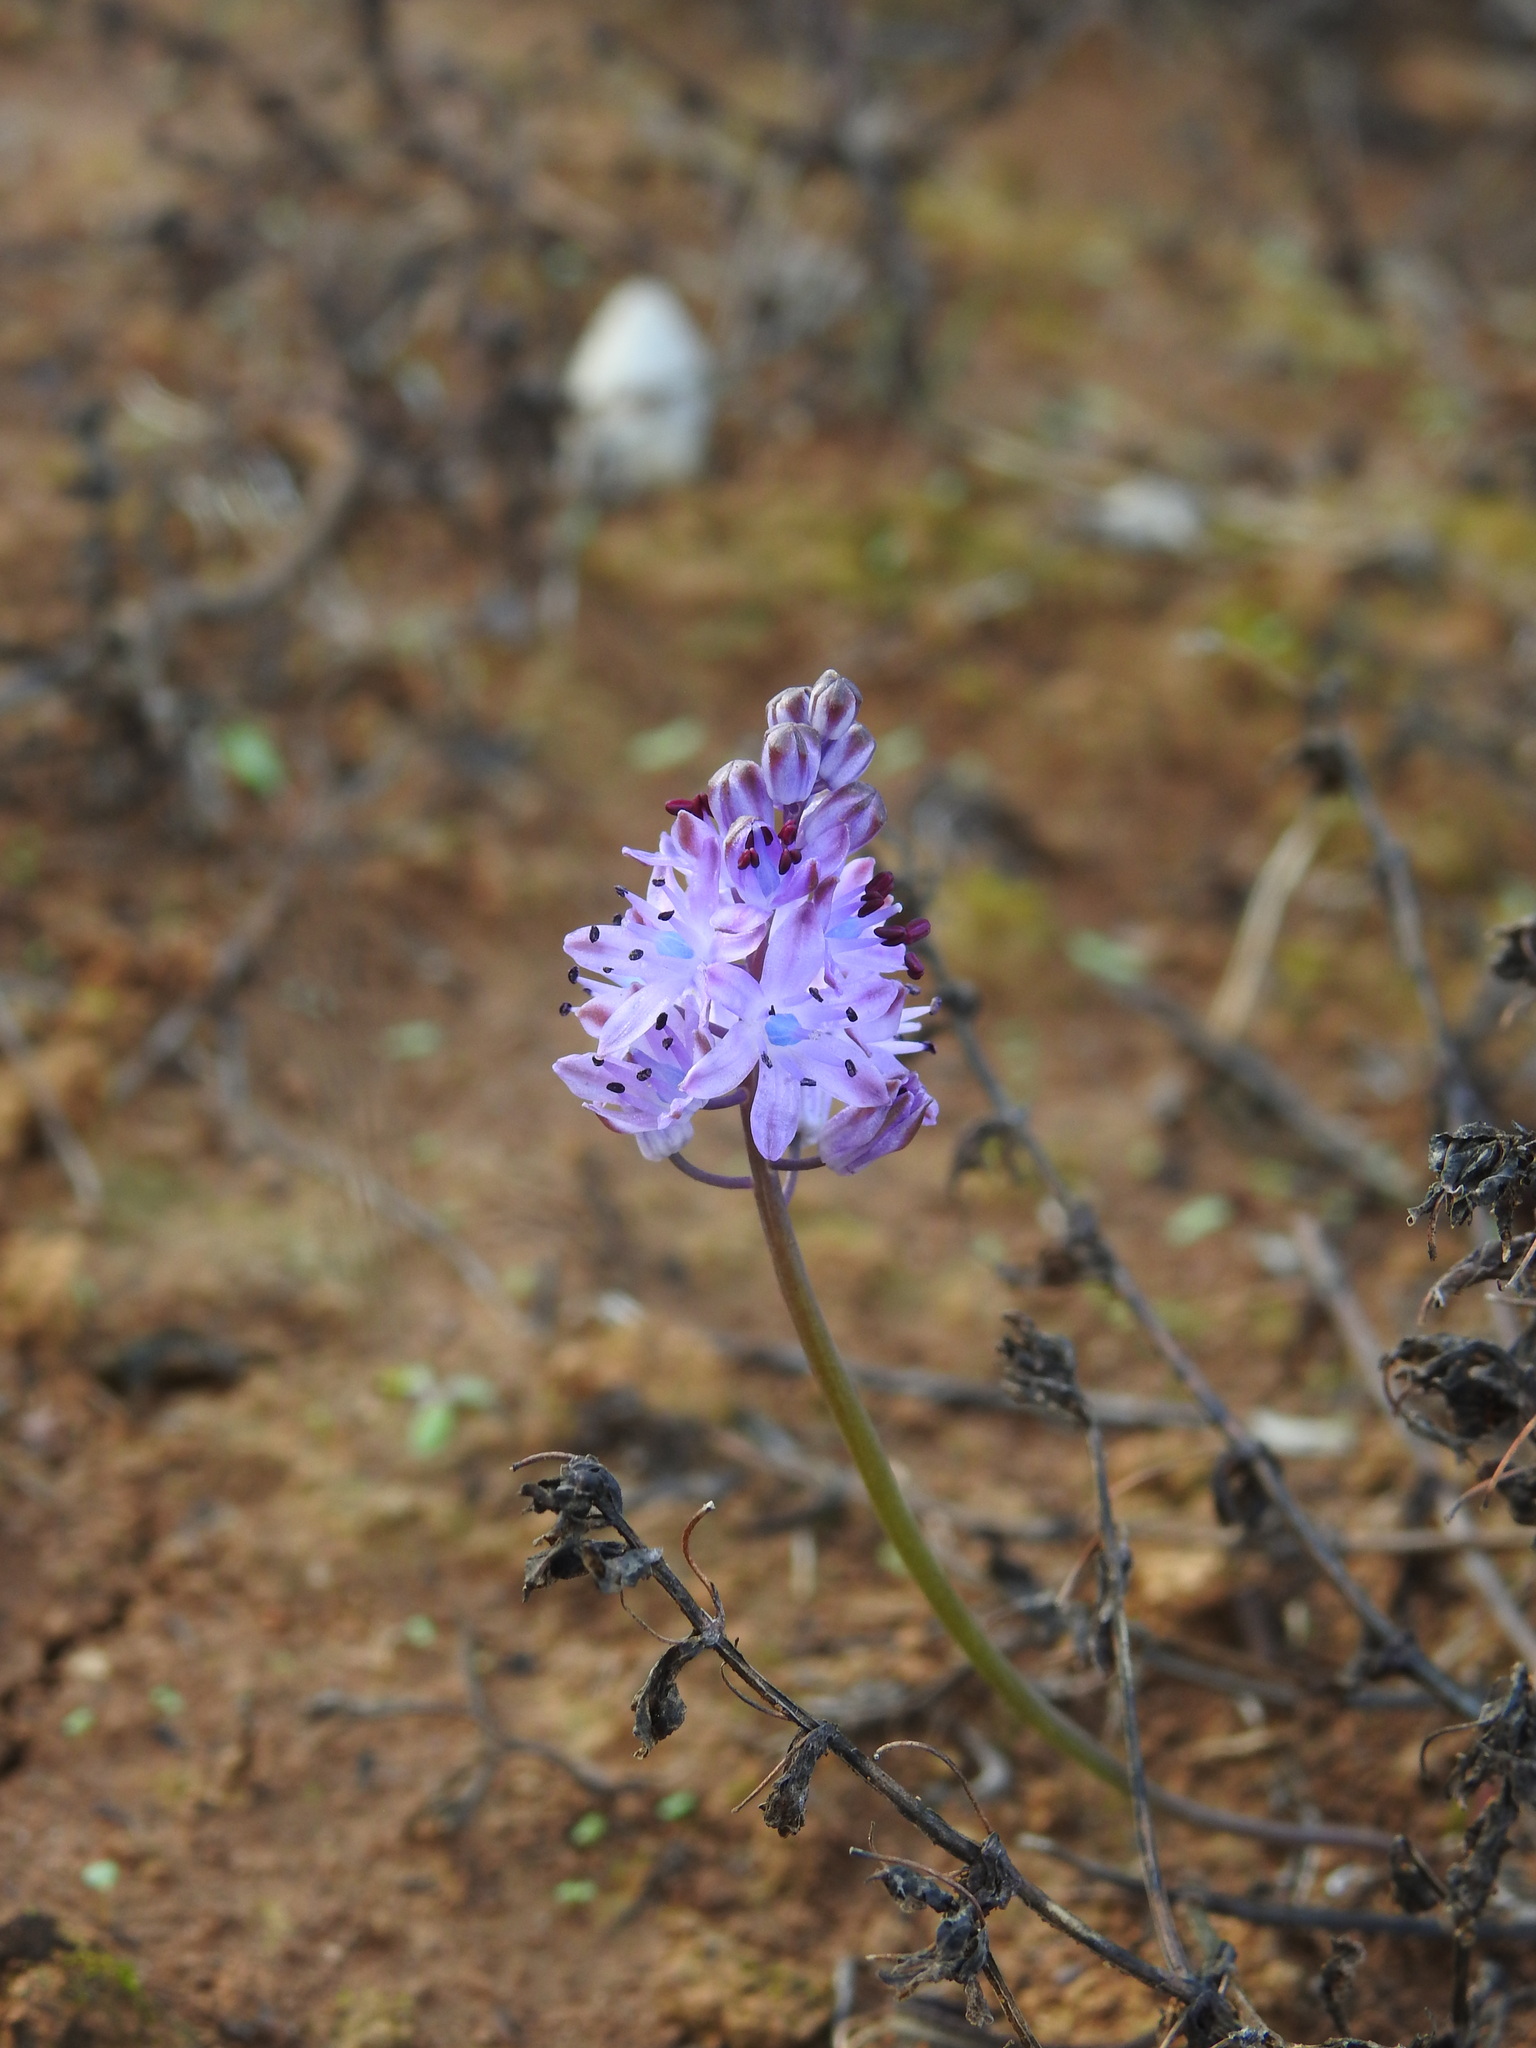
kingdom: Plantae
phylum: Tracheophyta
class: Liliopsida
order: Asparagales
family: Asparagaceae
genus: Prospero
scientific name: Prospero autumnale
